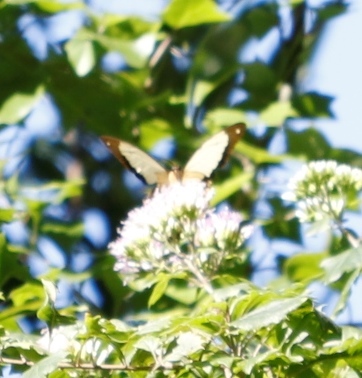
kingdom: Animalia
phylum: Arthropoda
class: Insecta
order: Lepidoptera
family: Papilionidae
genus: Papilio
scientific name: Papilio dardanus
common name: Flying handkerchief
